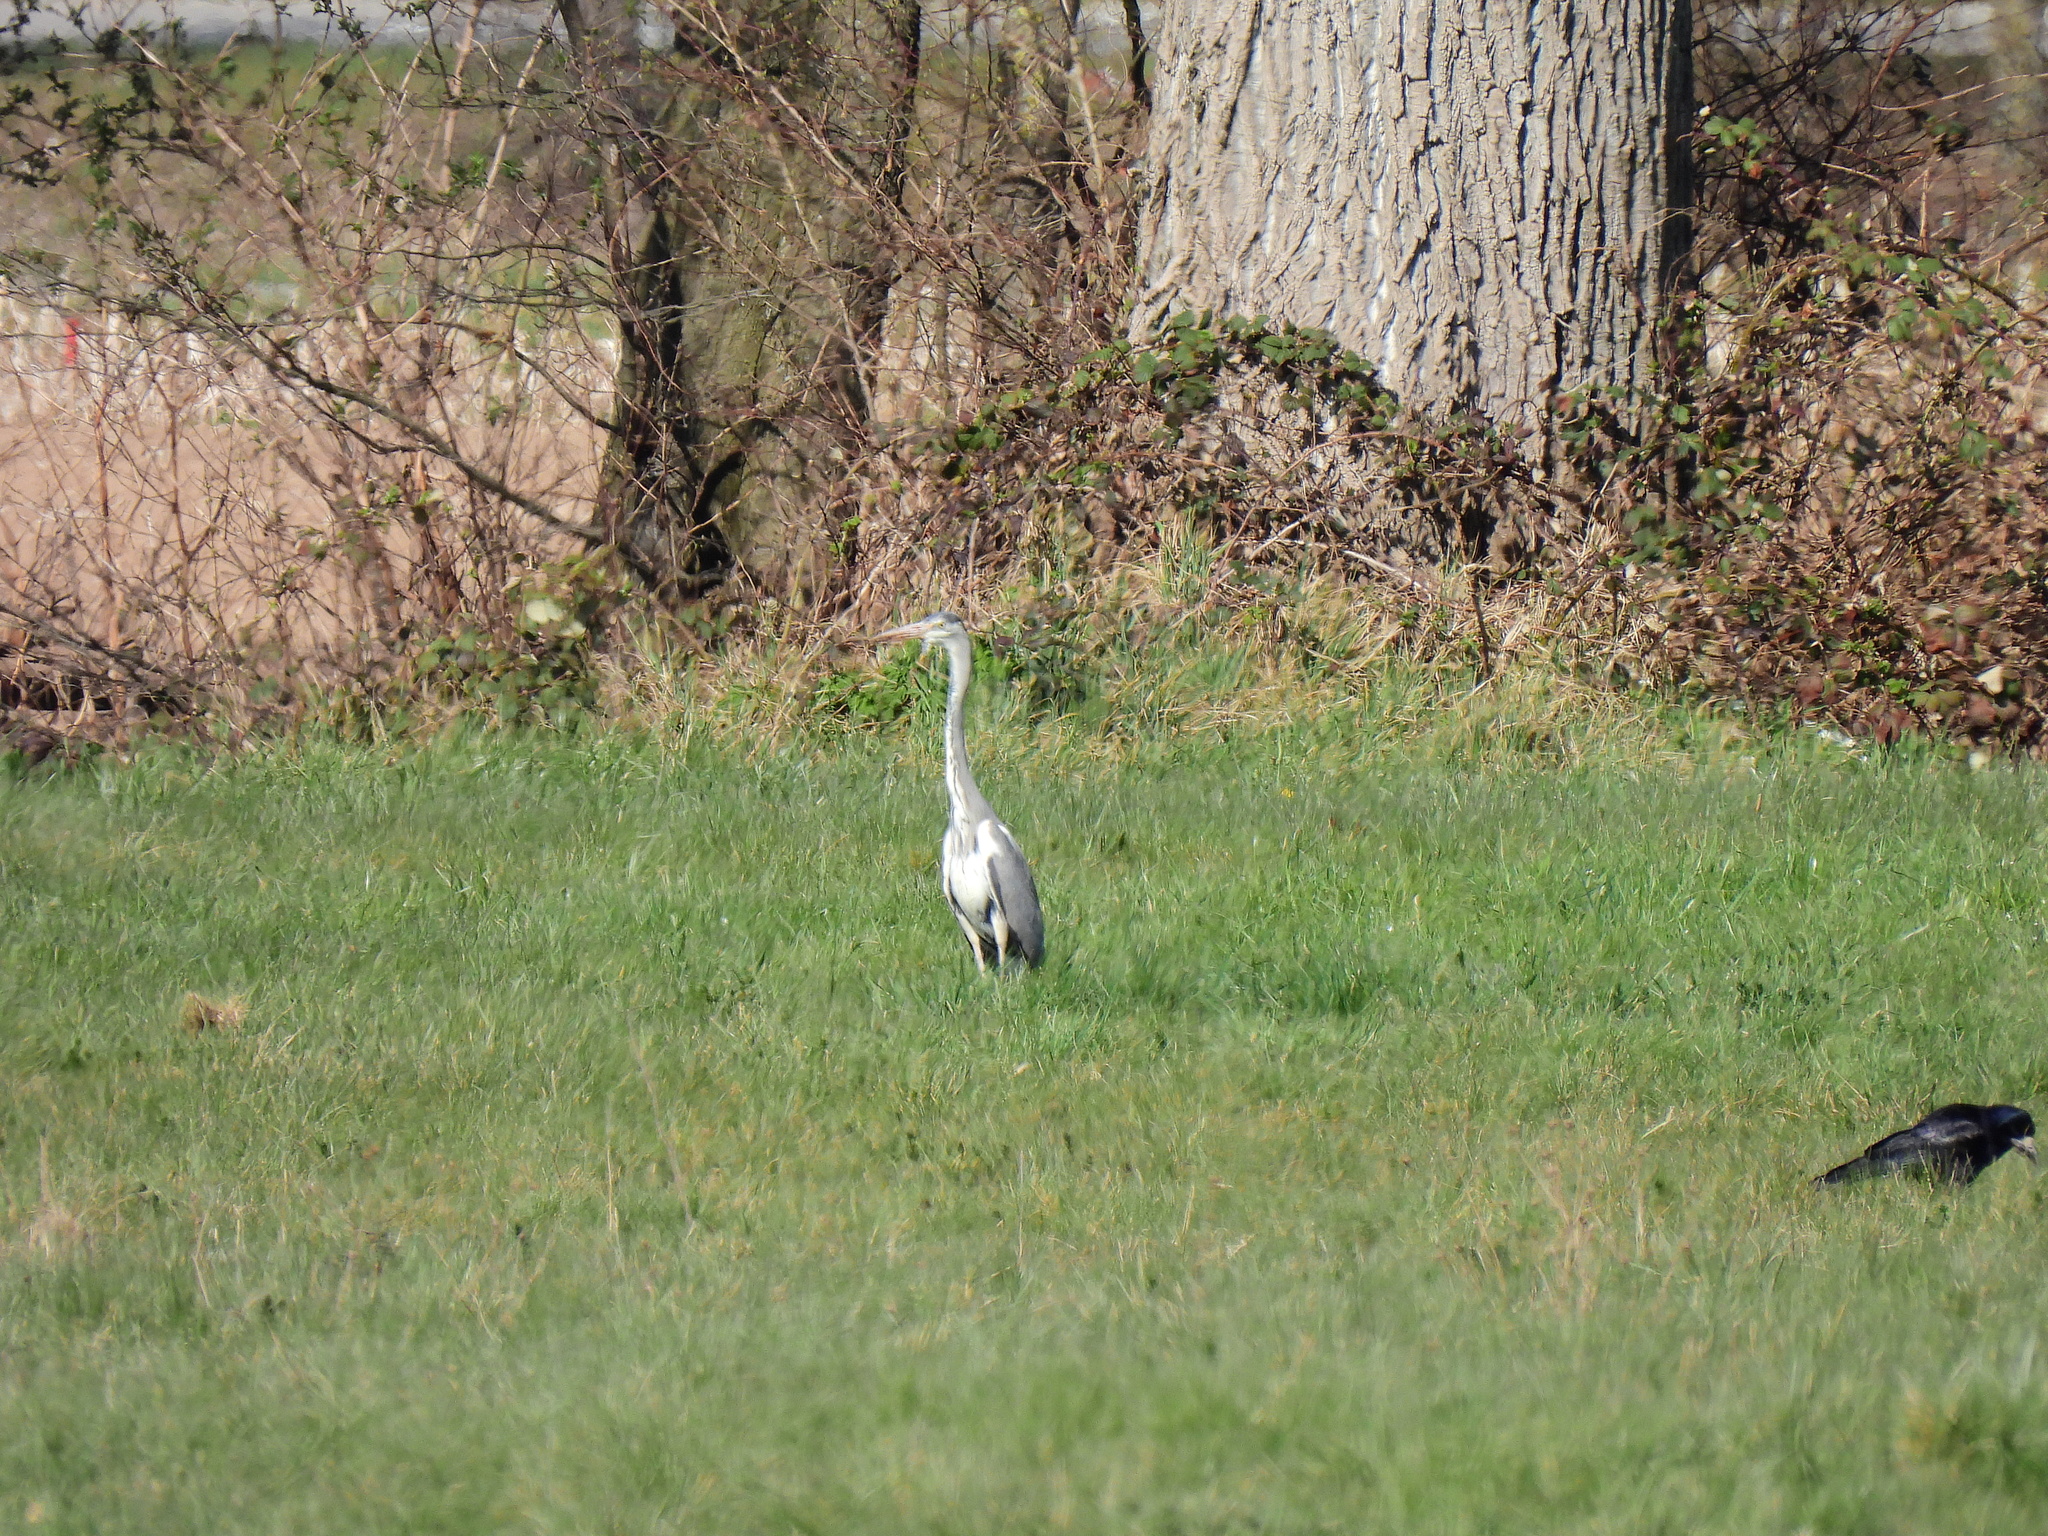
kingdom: Animalia
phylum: Chordata
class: Aves
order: Pelecaniformes
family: Ardeidae
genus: Ardea
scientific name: Ardea cinerea
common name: Grey heron
